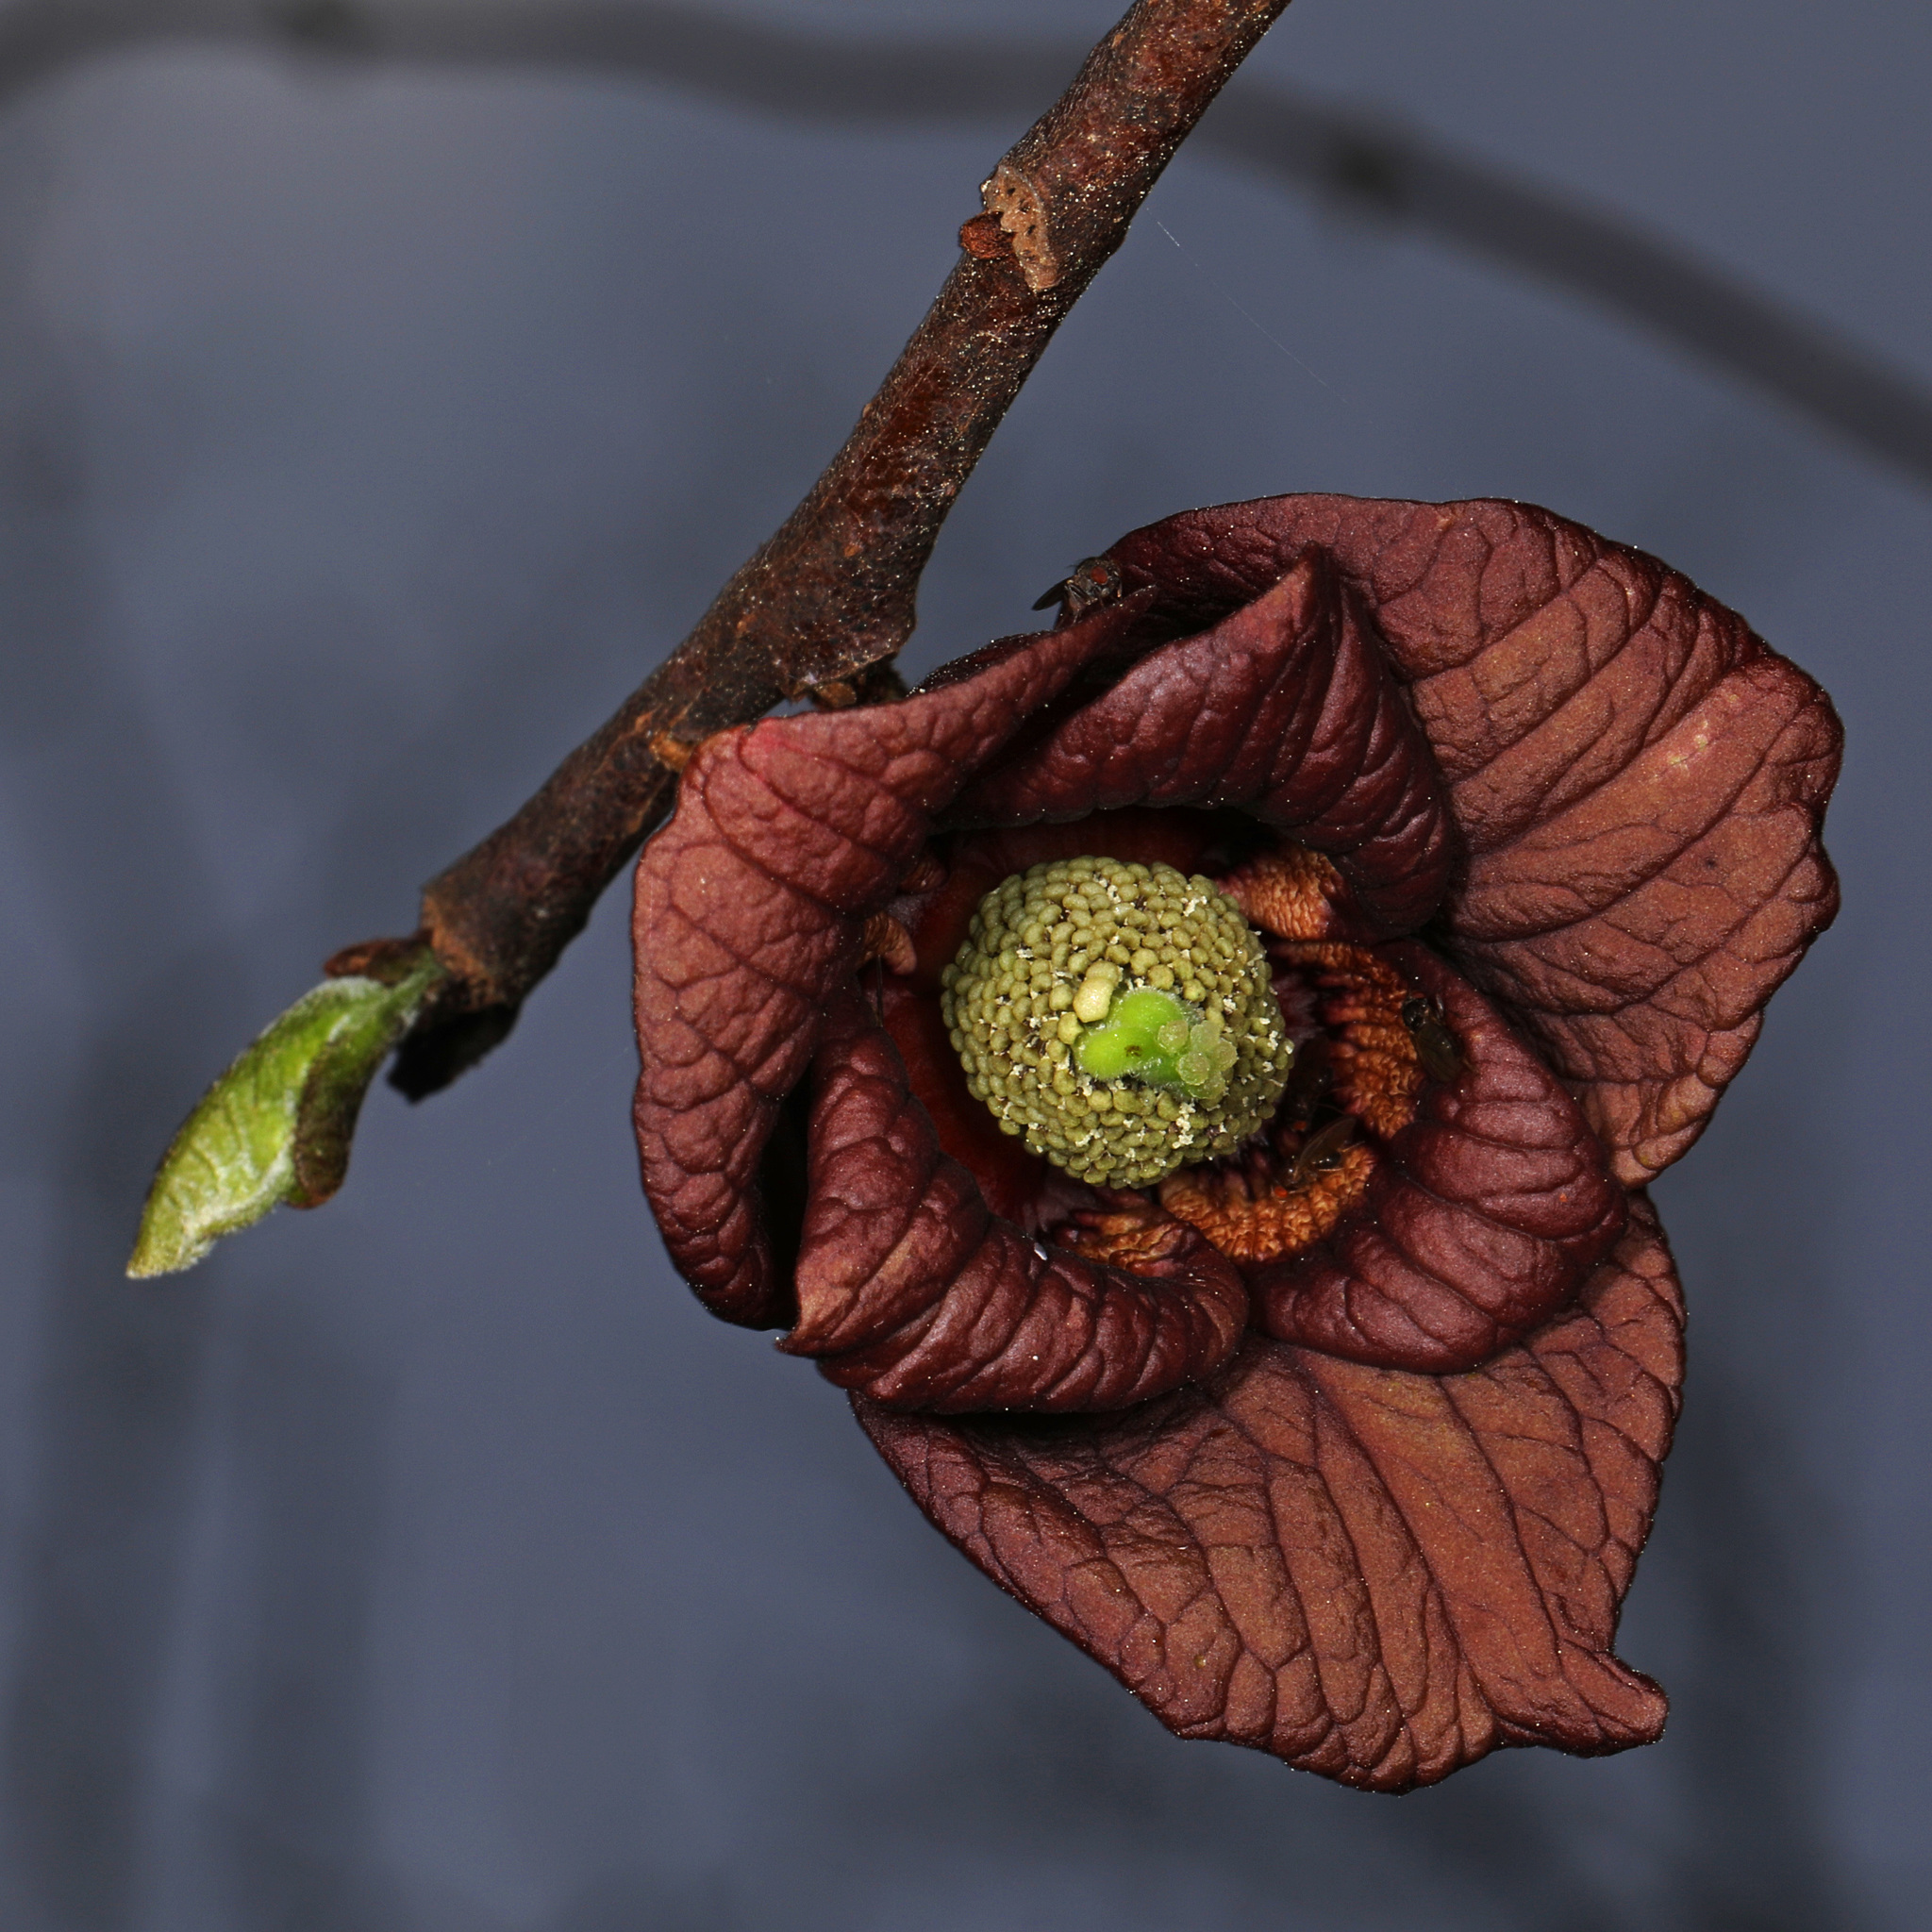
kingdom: Plantae
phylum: Tracheophyta
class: Magnoliopsida
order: Magnoliales
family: Annonaceae
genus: Asimina
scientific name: Asimina triloba
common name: Dog-banana
